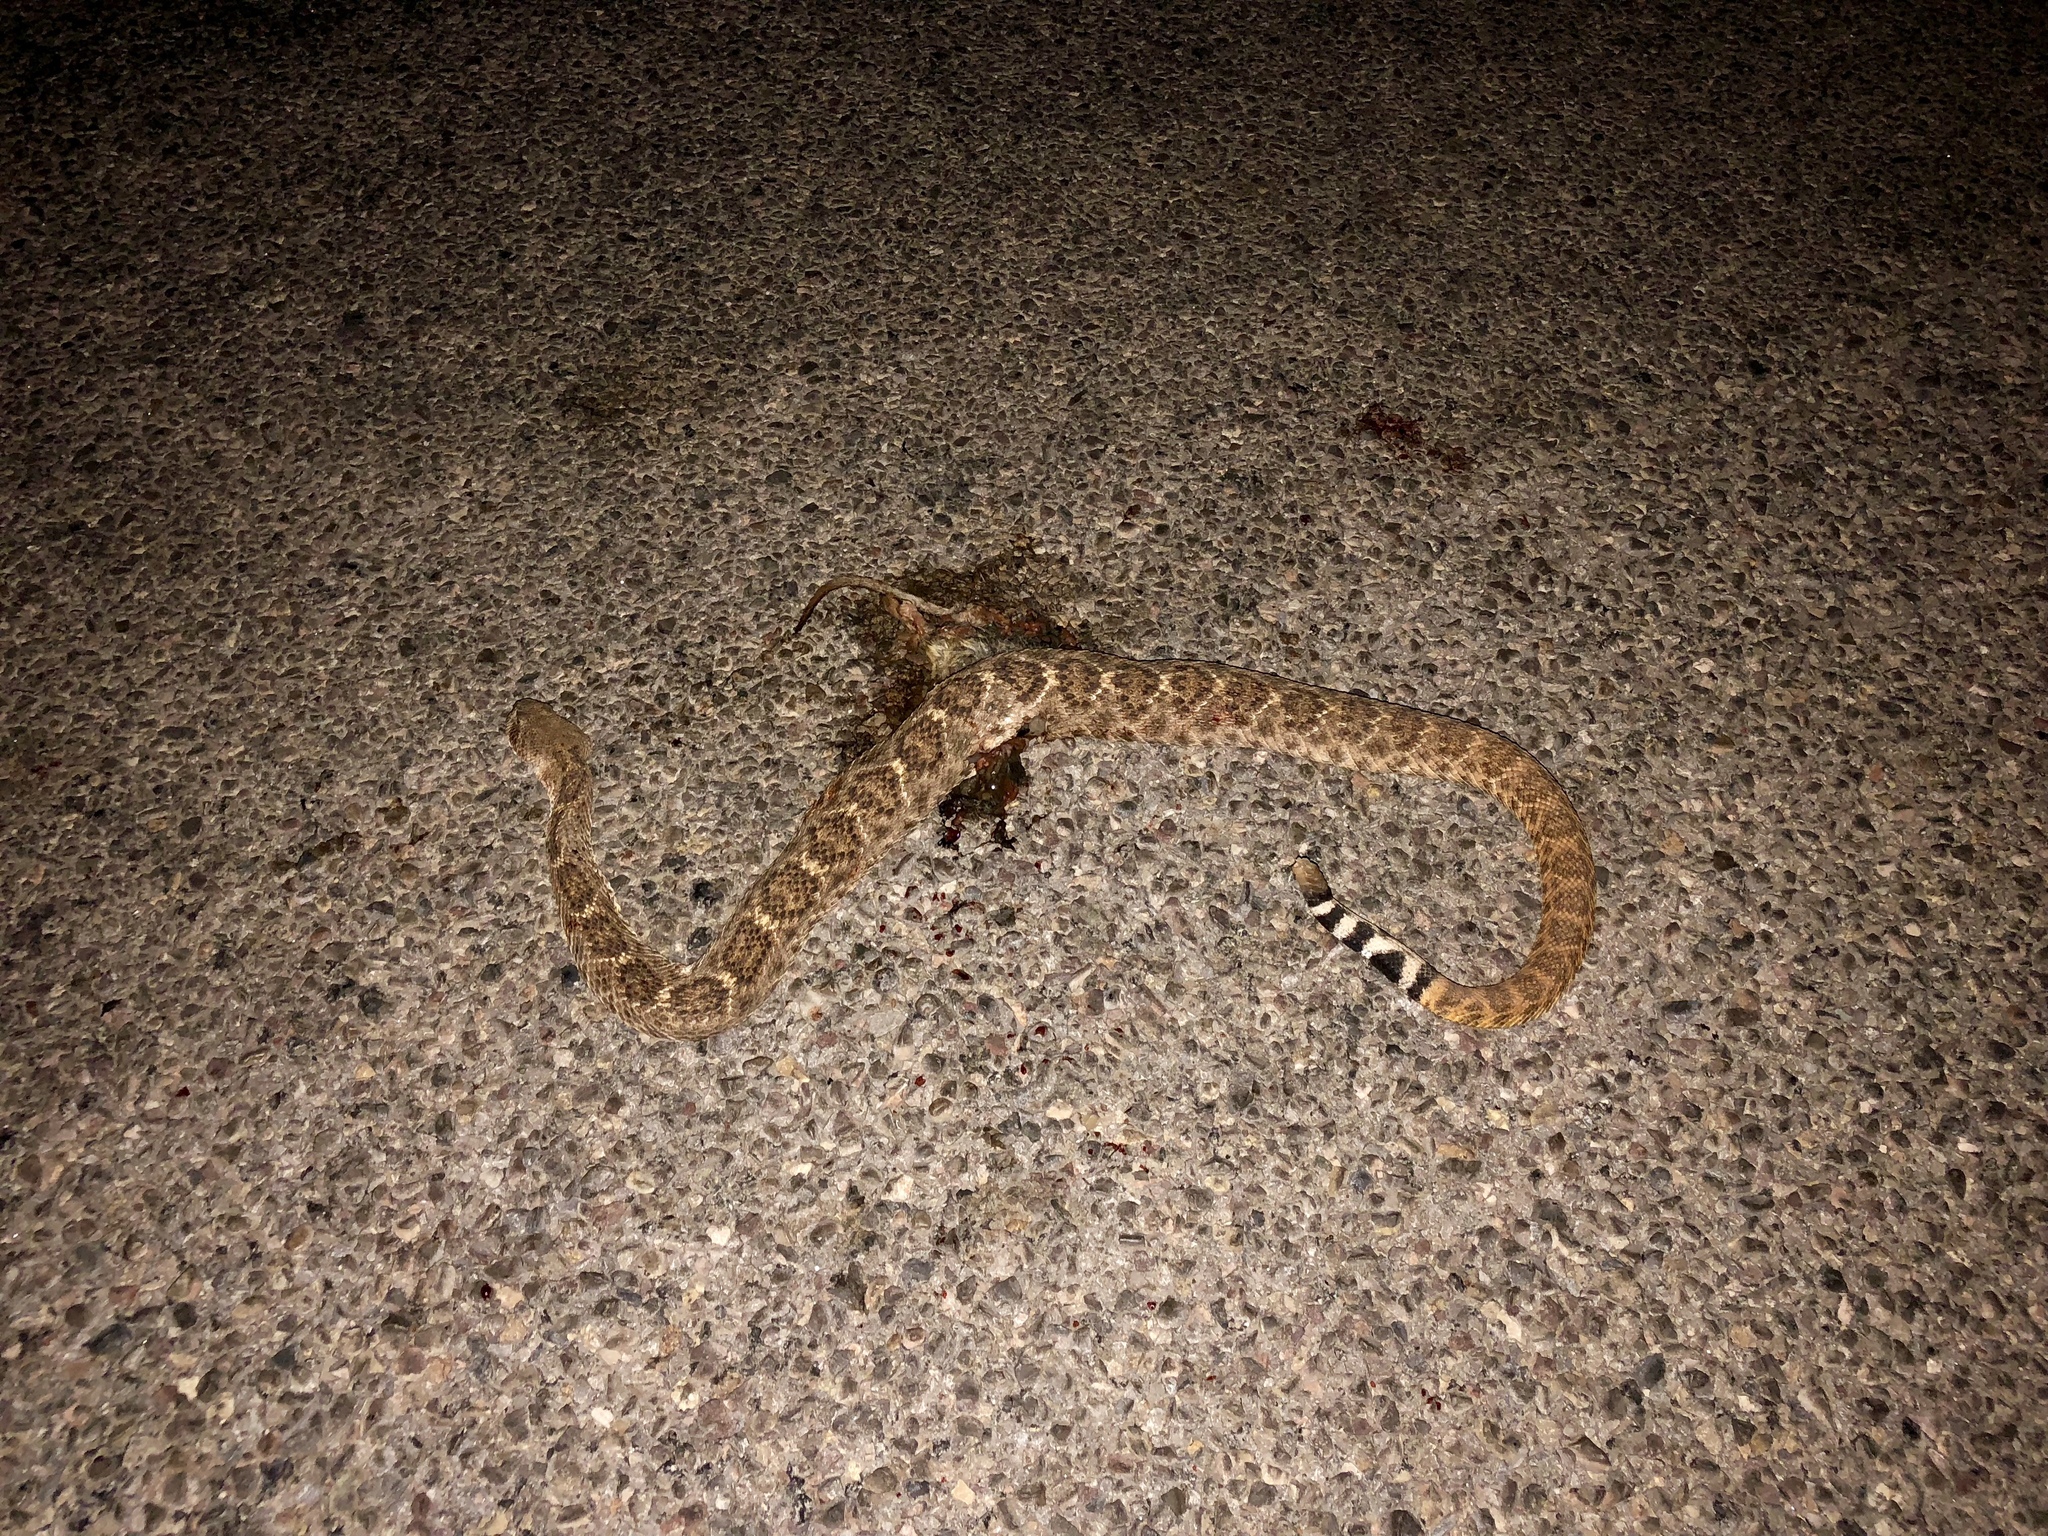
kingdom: Animalia
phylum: Chordata
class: Squamata
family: Viperidae
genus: Crotalus
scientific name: Crotalus atrox
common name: Western diamond-backed rattlesnake
